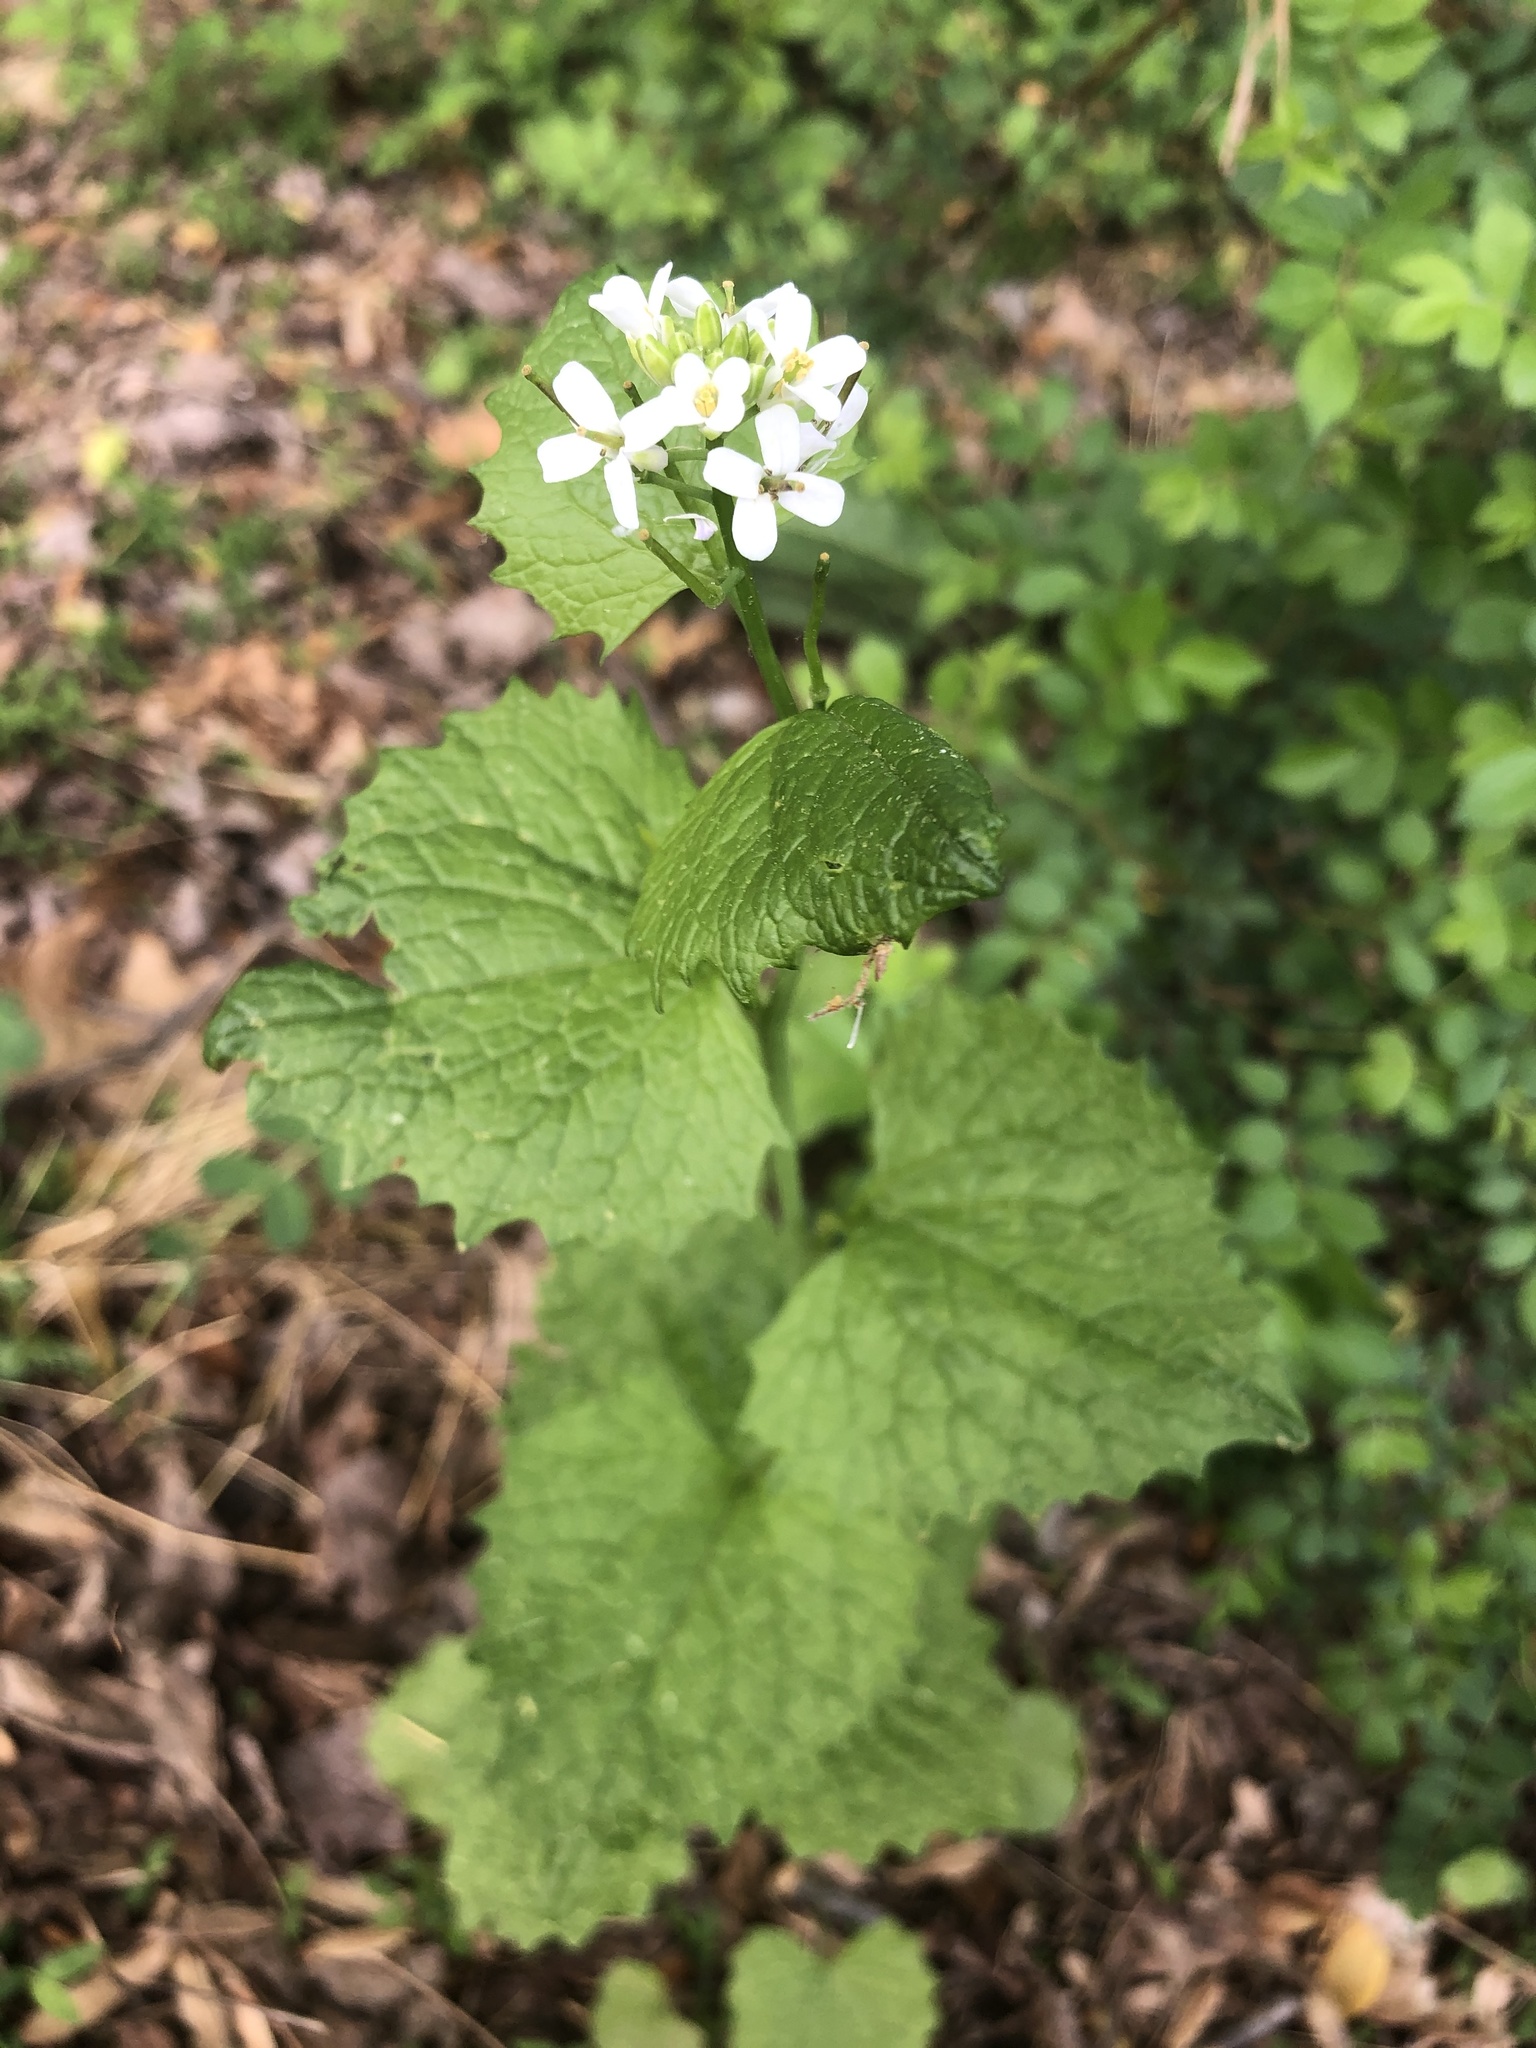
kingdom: Plantae
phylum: Tracheophyta
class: Magnoliopsida
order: Brassicales
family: Brassicaceae
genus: Alliaria
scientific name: Alliaria petiolata
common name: Garlic mustard
